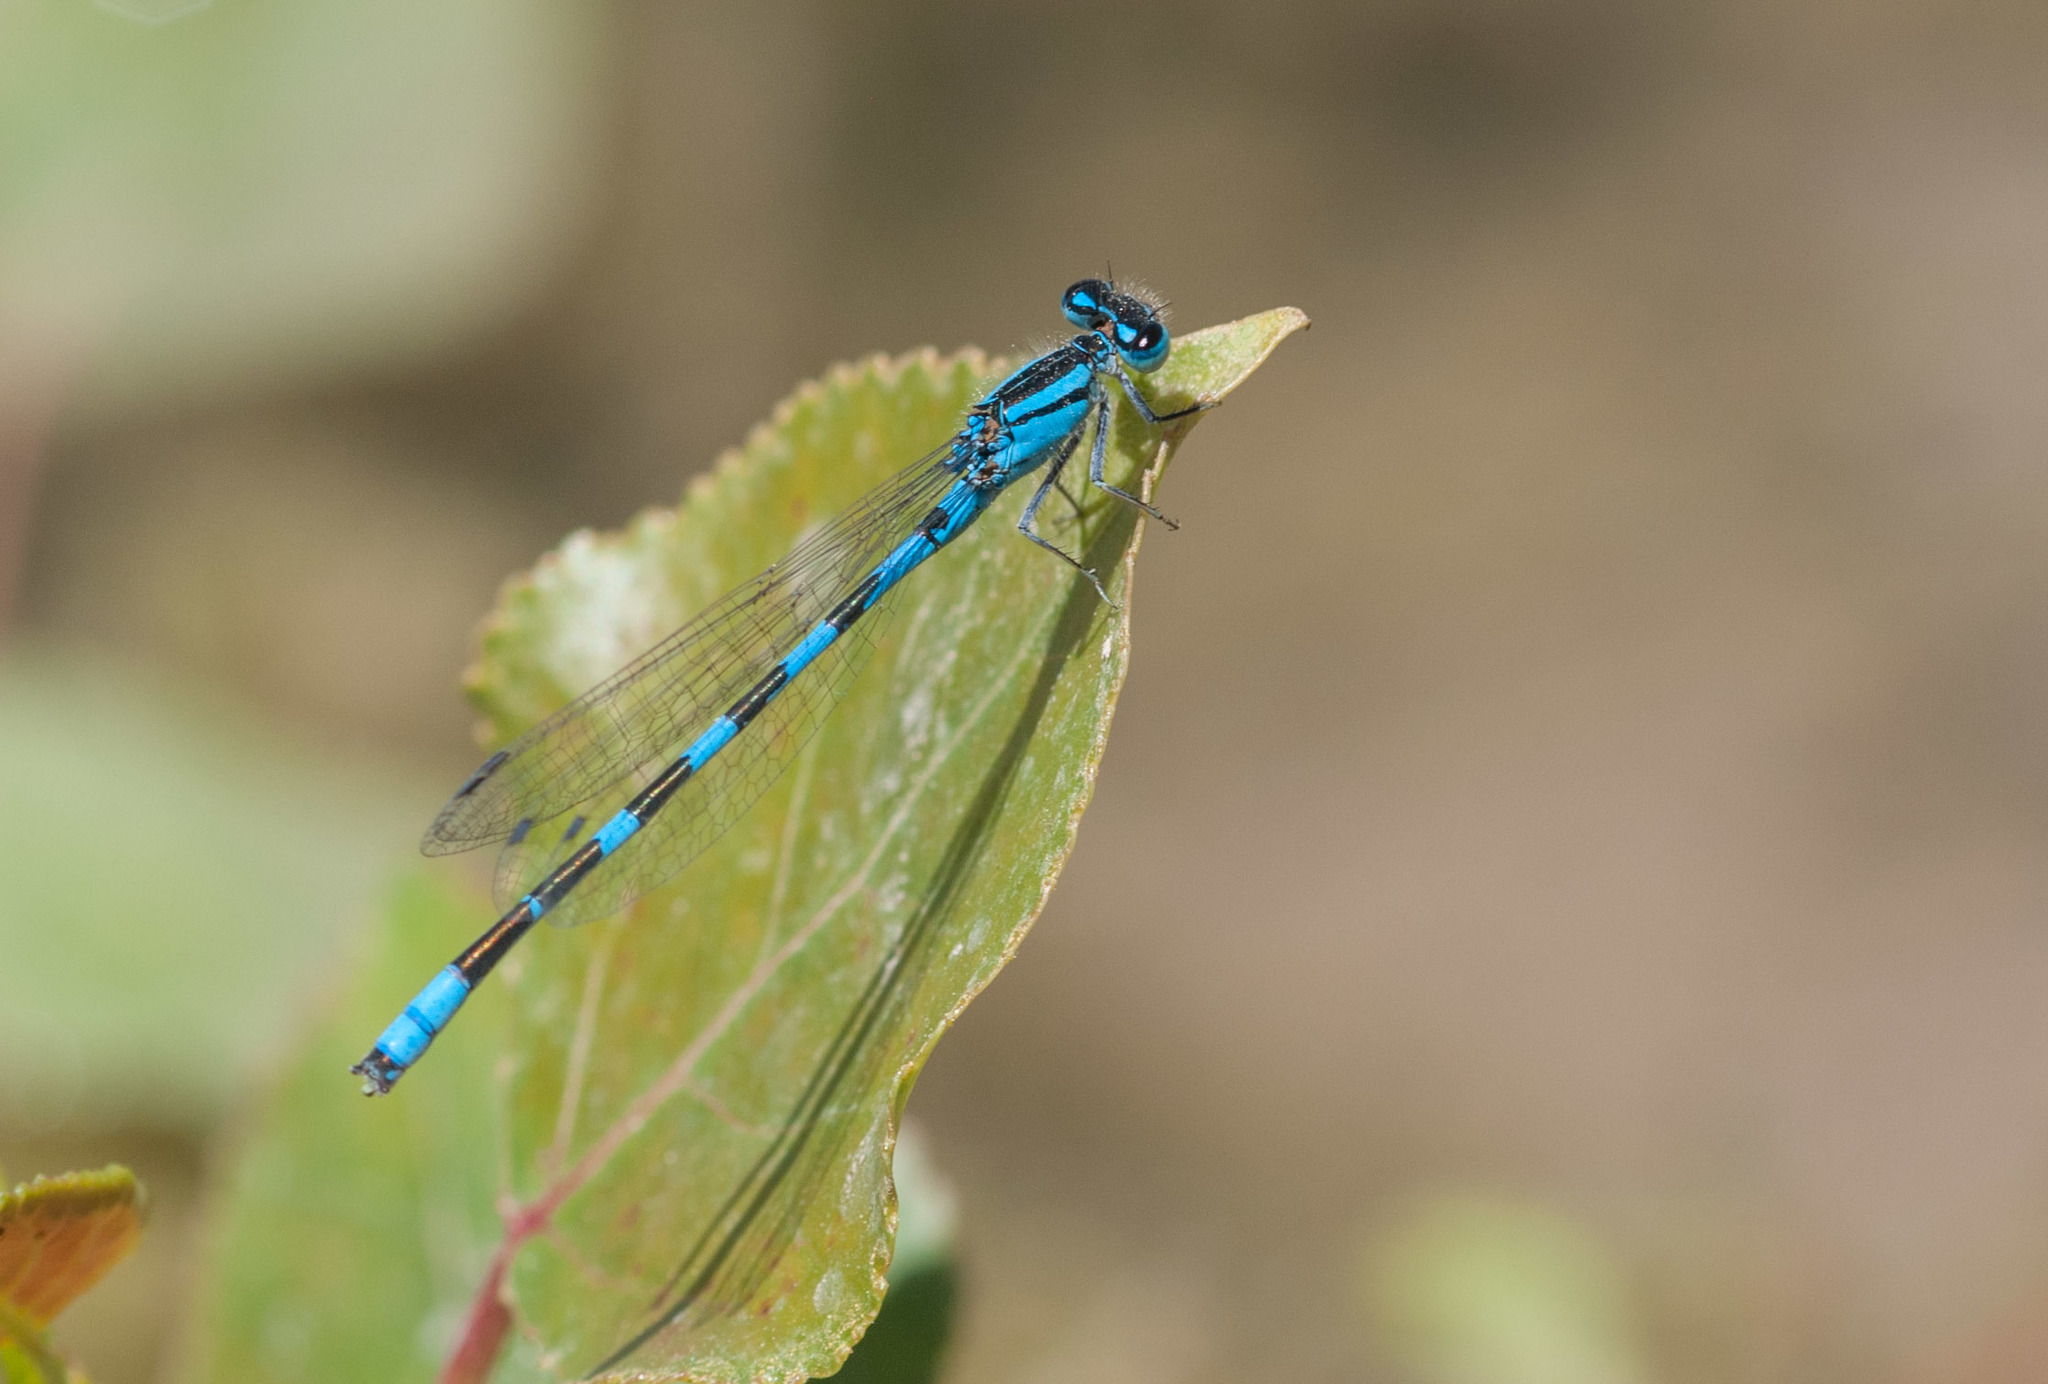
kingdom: Animalia
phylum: Arthropoda
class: Insecta
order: Odonata
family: Coenagrionidae
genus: Enallagma
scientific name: Enallagma carunculatum
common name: Tule bluet
